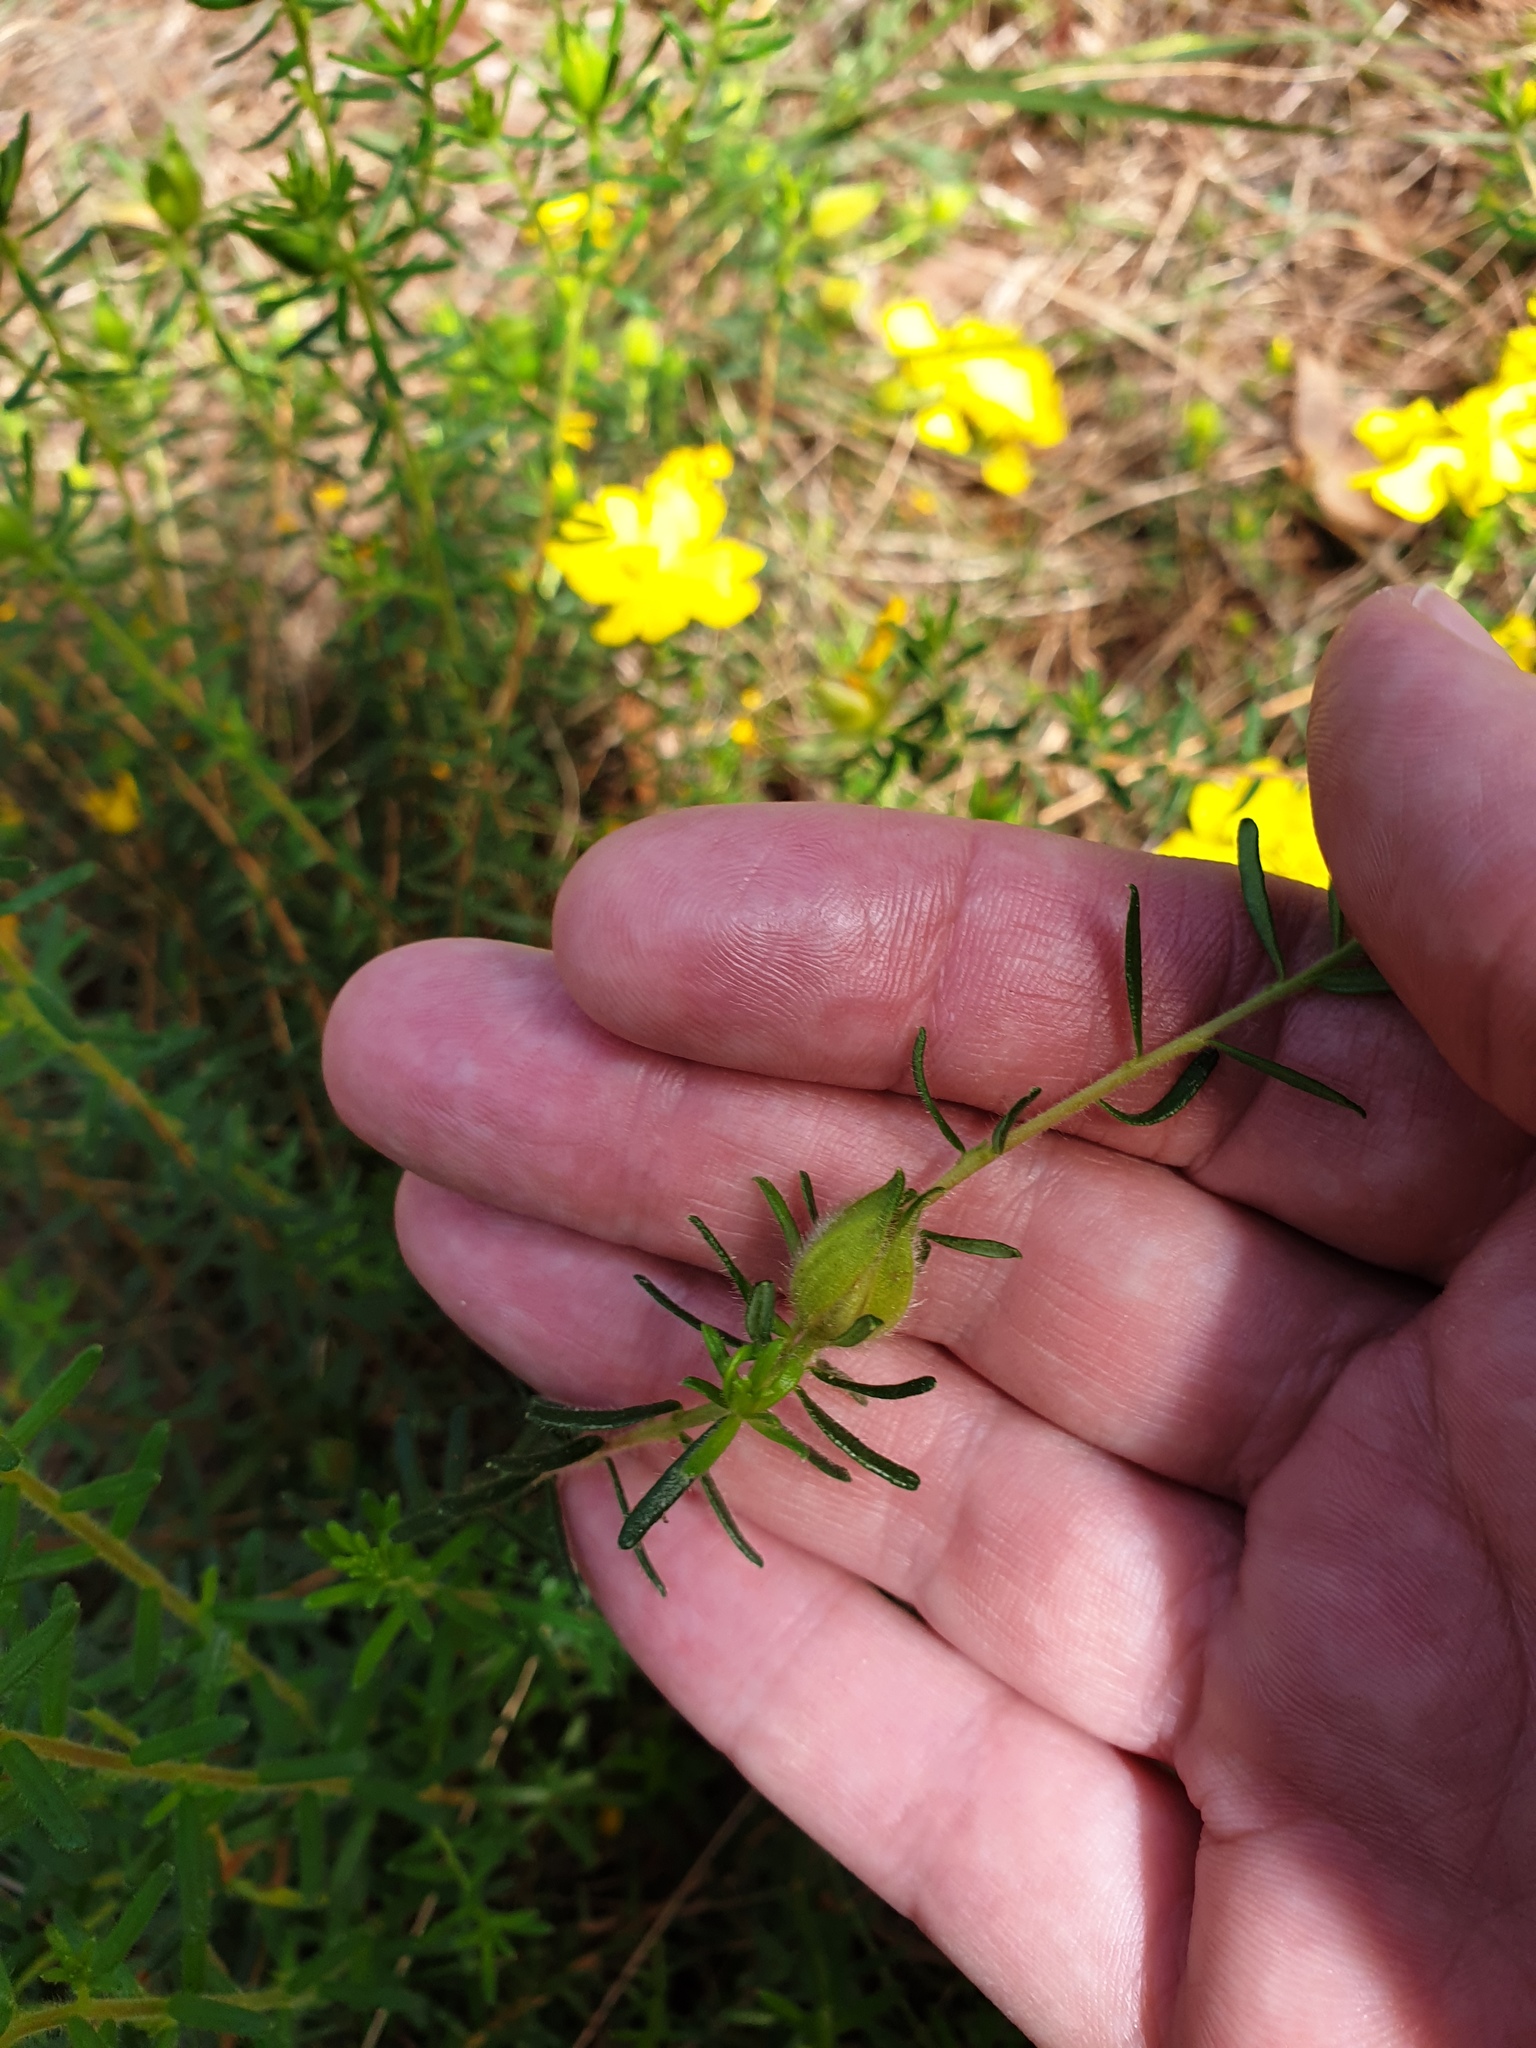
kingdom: Plantae
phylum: Tracheophyta
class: Magnoliopsida
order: Dilleniales
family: Dilleniaceae
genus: Hibbertia
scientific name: Hibbertia vestita
